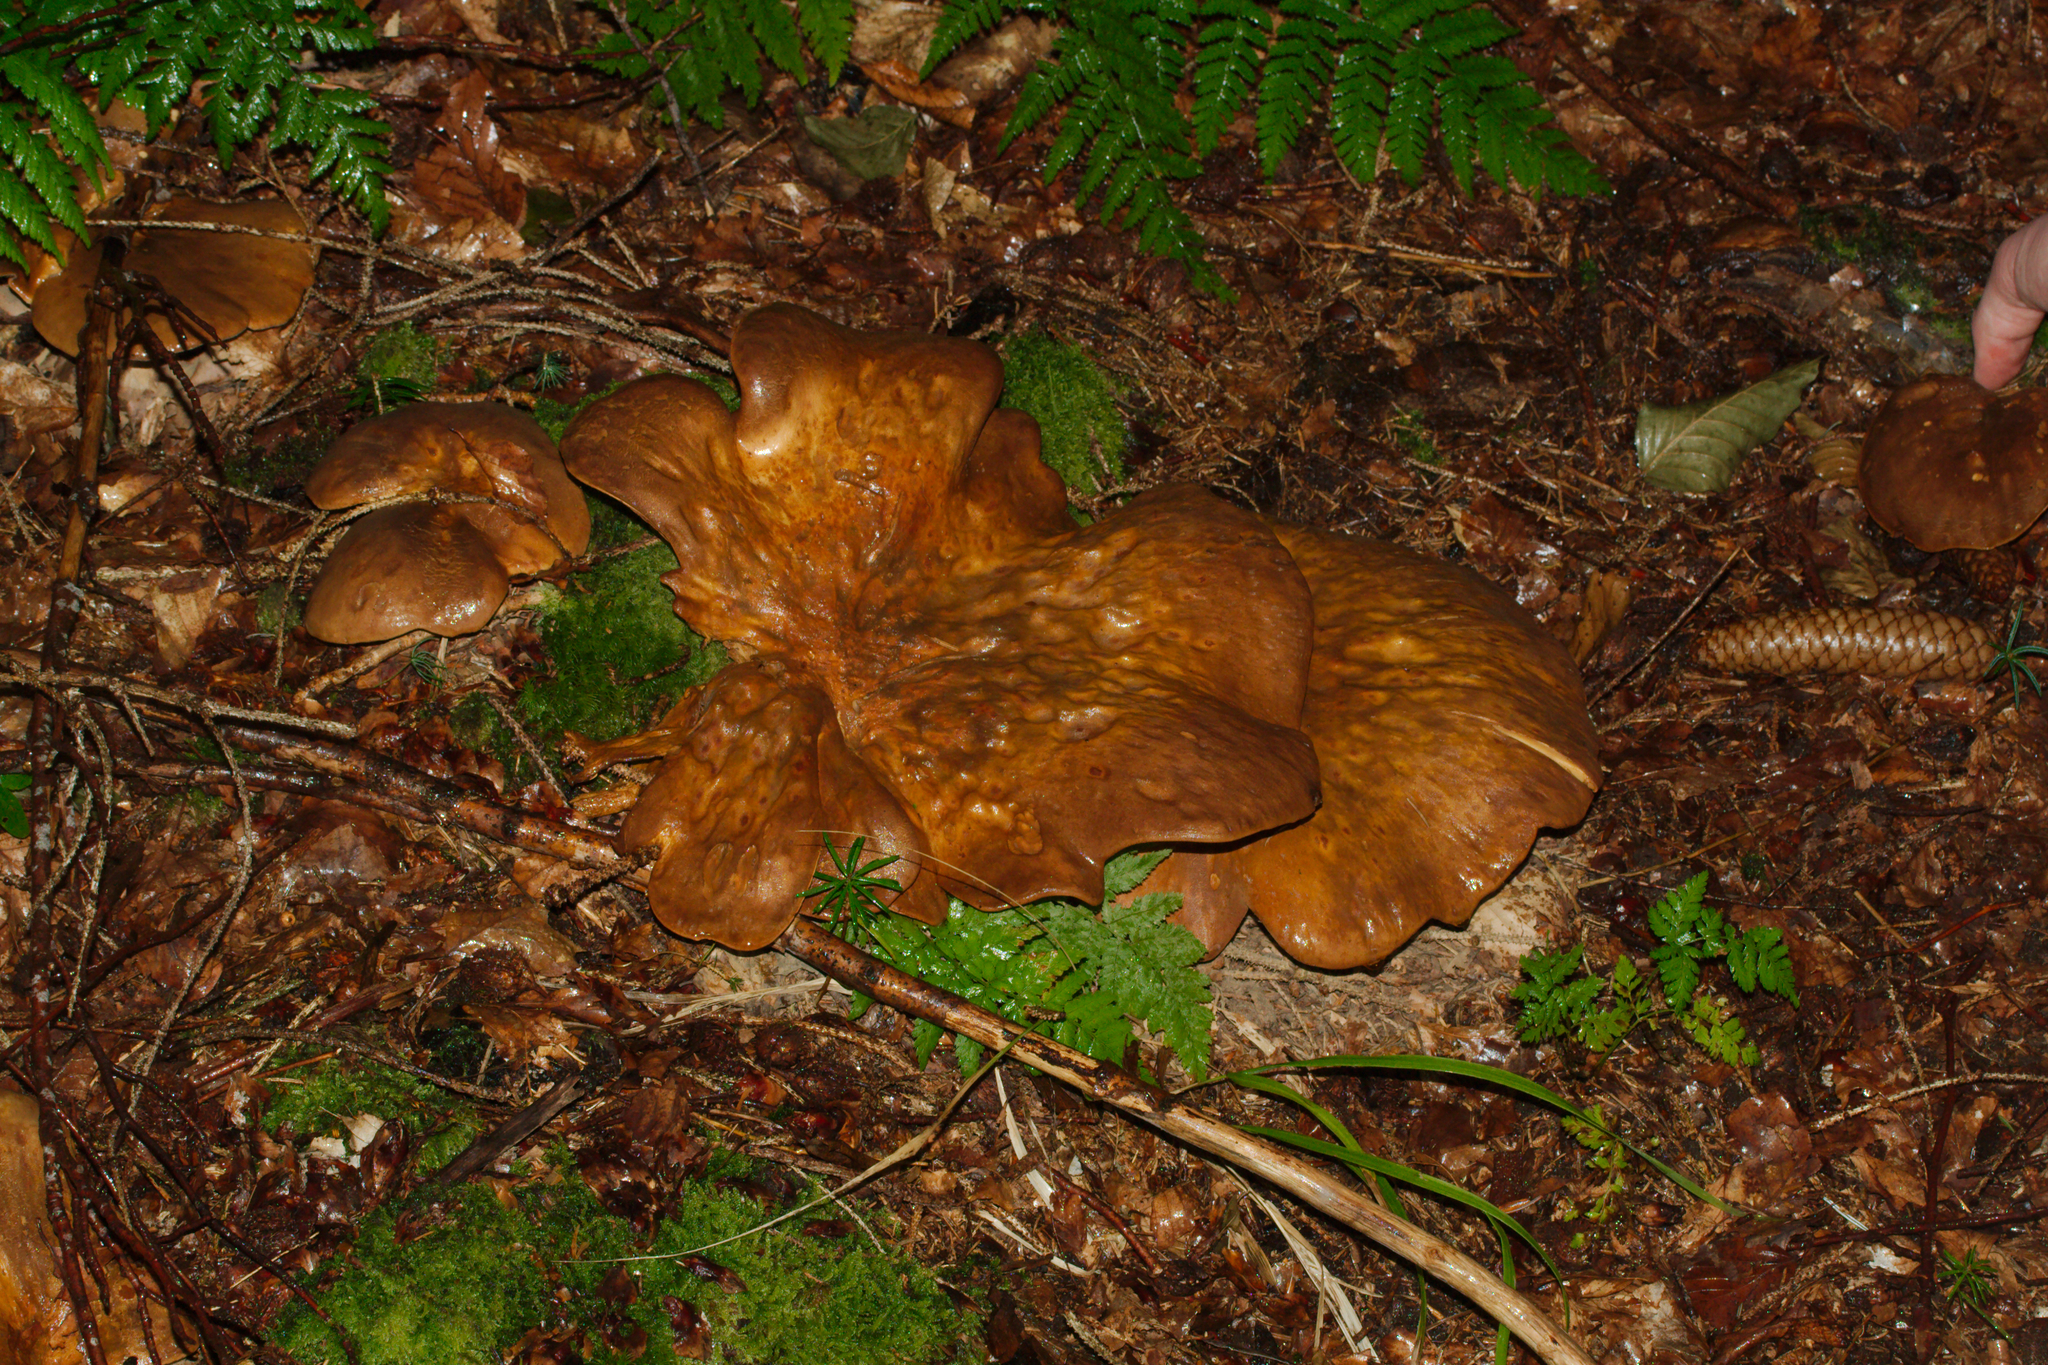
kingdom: Fungi
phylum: Basidiomycota
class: Agaricomycetes
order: Boletales
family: Tapinellaceae
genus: Tapinella
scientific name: Tapinella atrotomentosa
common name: Velvet rollrim
